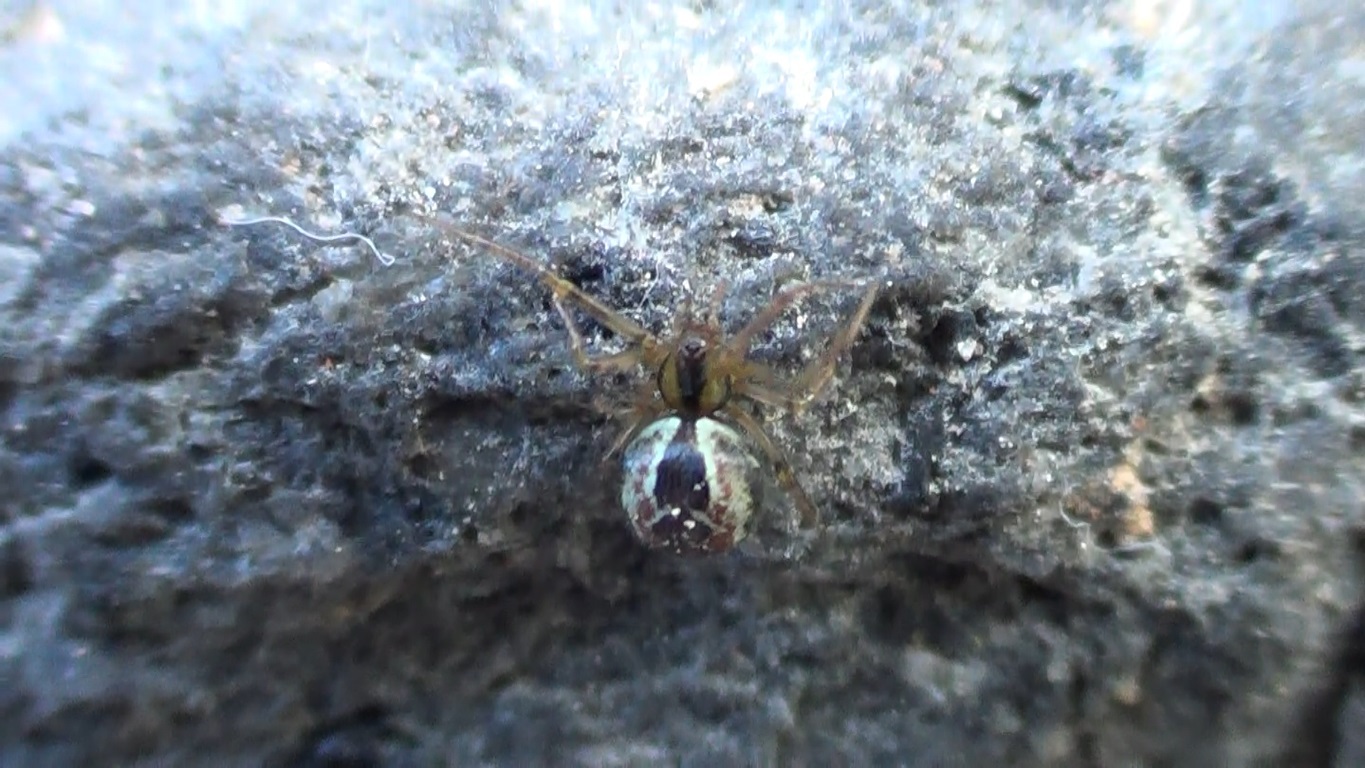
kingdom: Animalia
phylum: Arthropoda
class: Arachnida
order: Araneae
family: Theridiidae
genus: Kochiura
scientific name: Kochiura aulica
